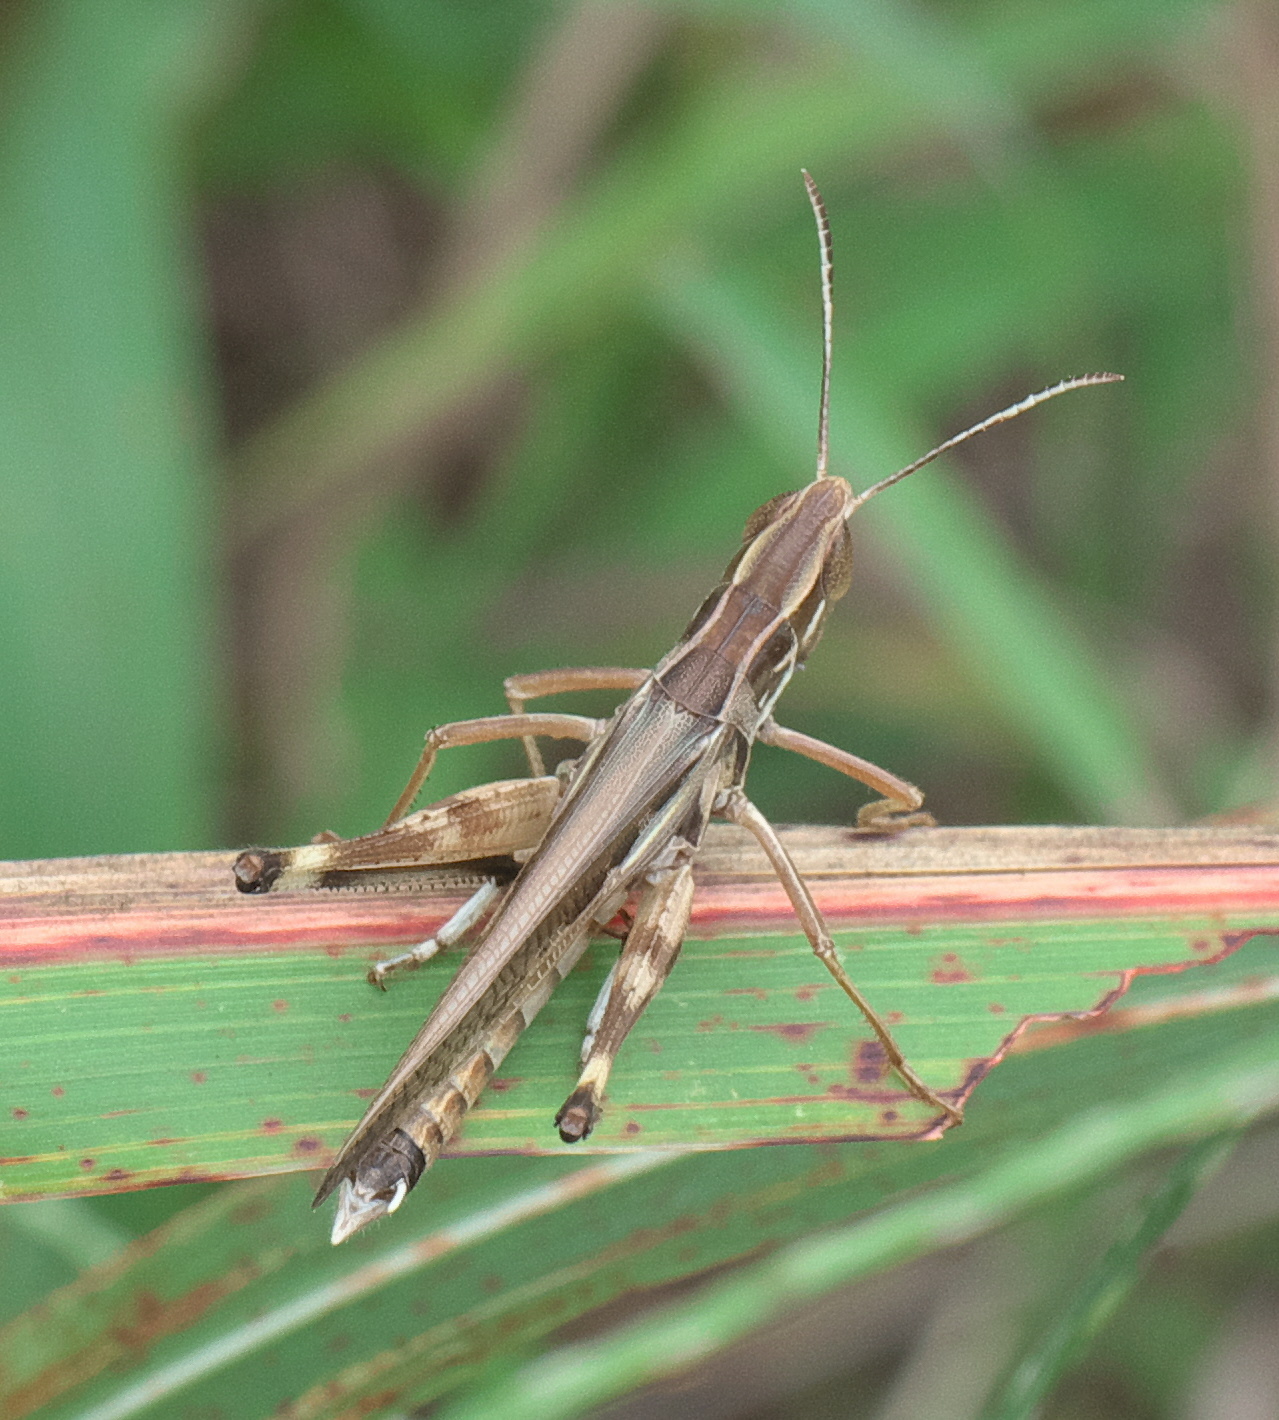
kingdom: Animalia
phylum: Arthropoda
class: Insecta
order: Orthoptera
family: Acrididae
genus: Syrbula
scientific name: Syrbula admirabilis
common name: Handsome grasshopper
